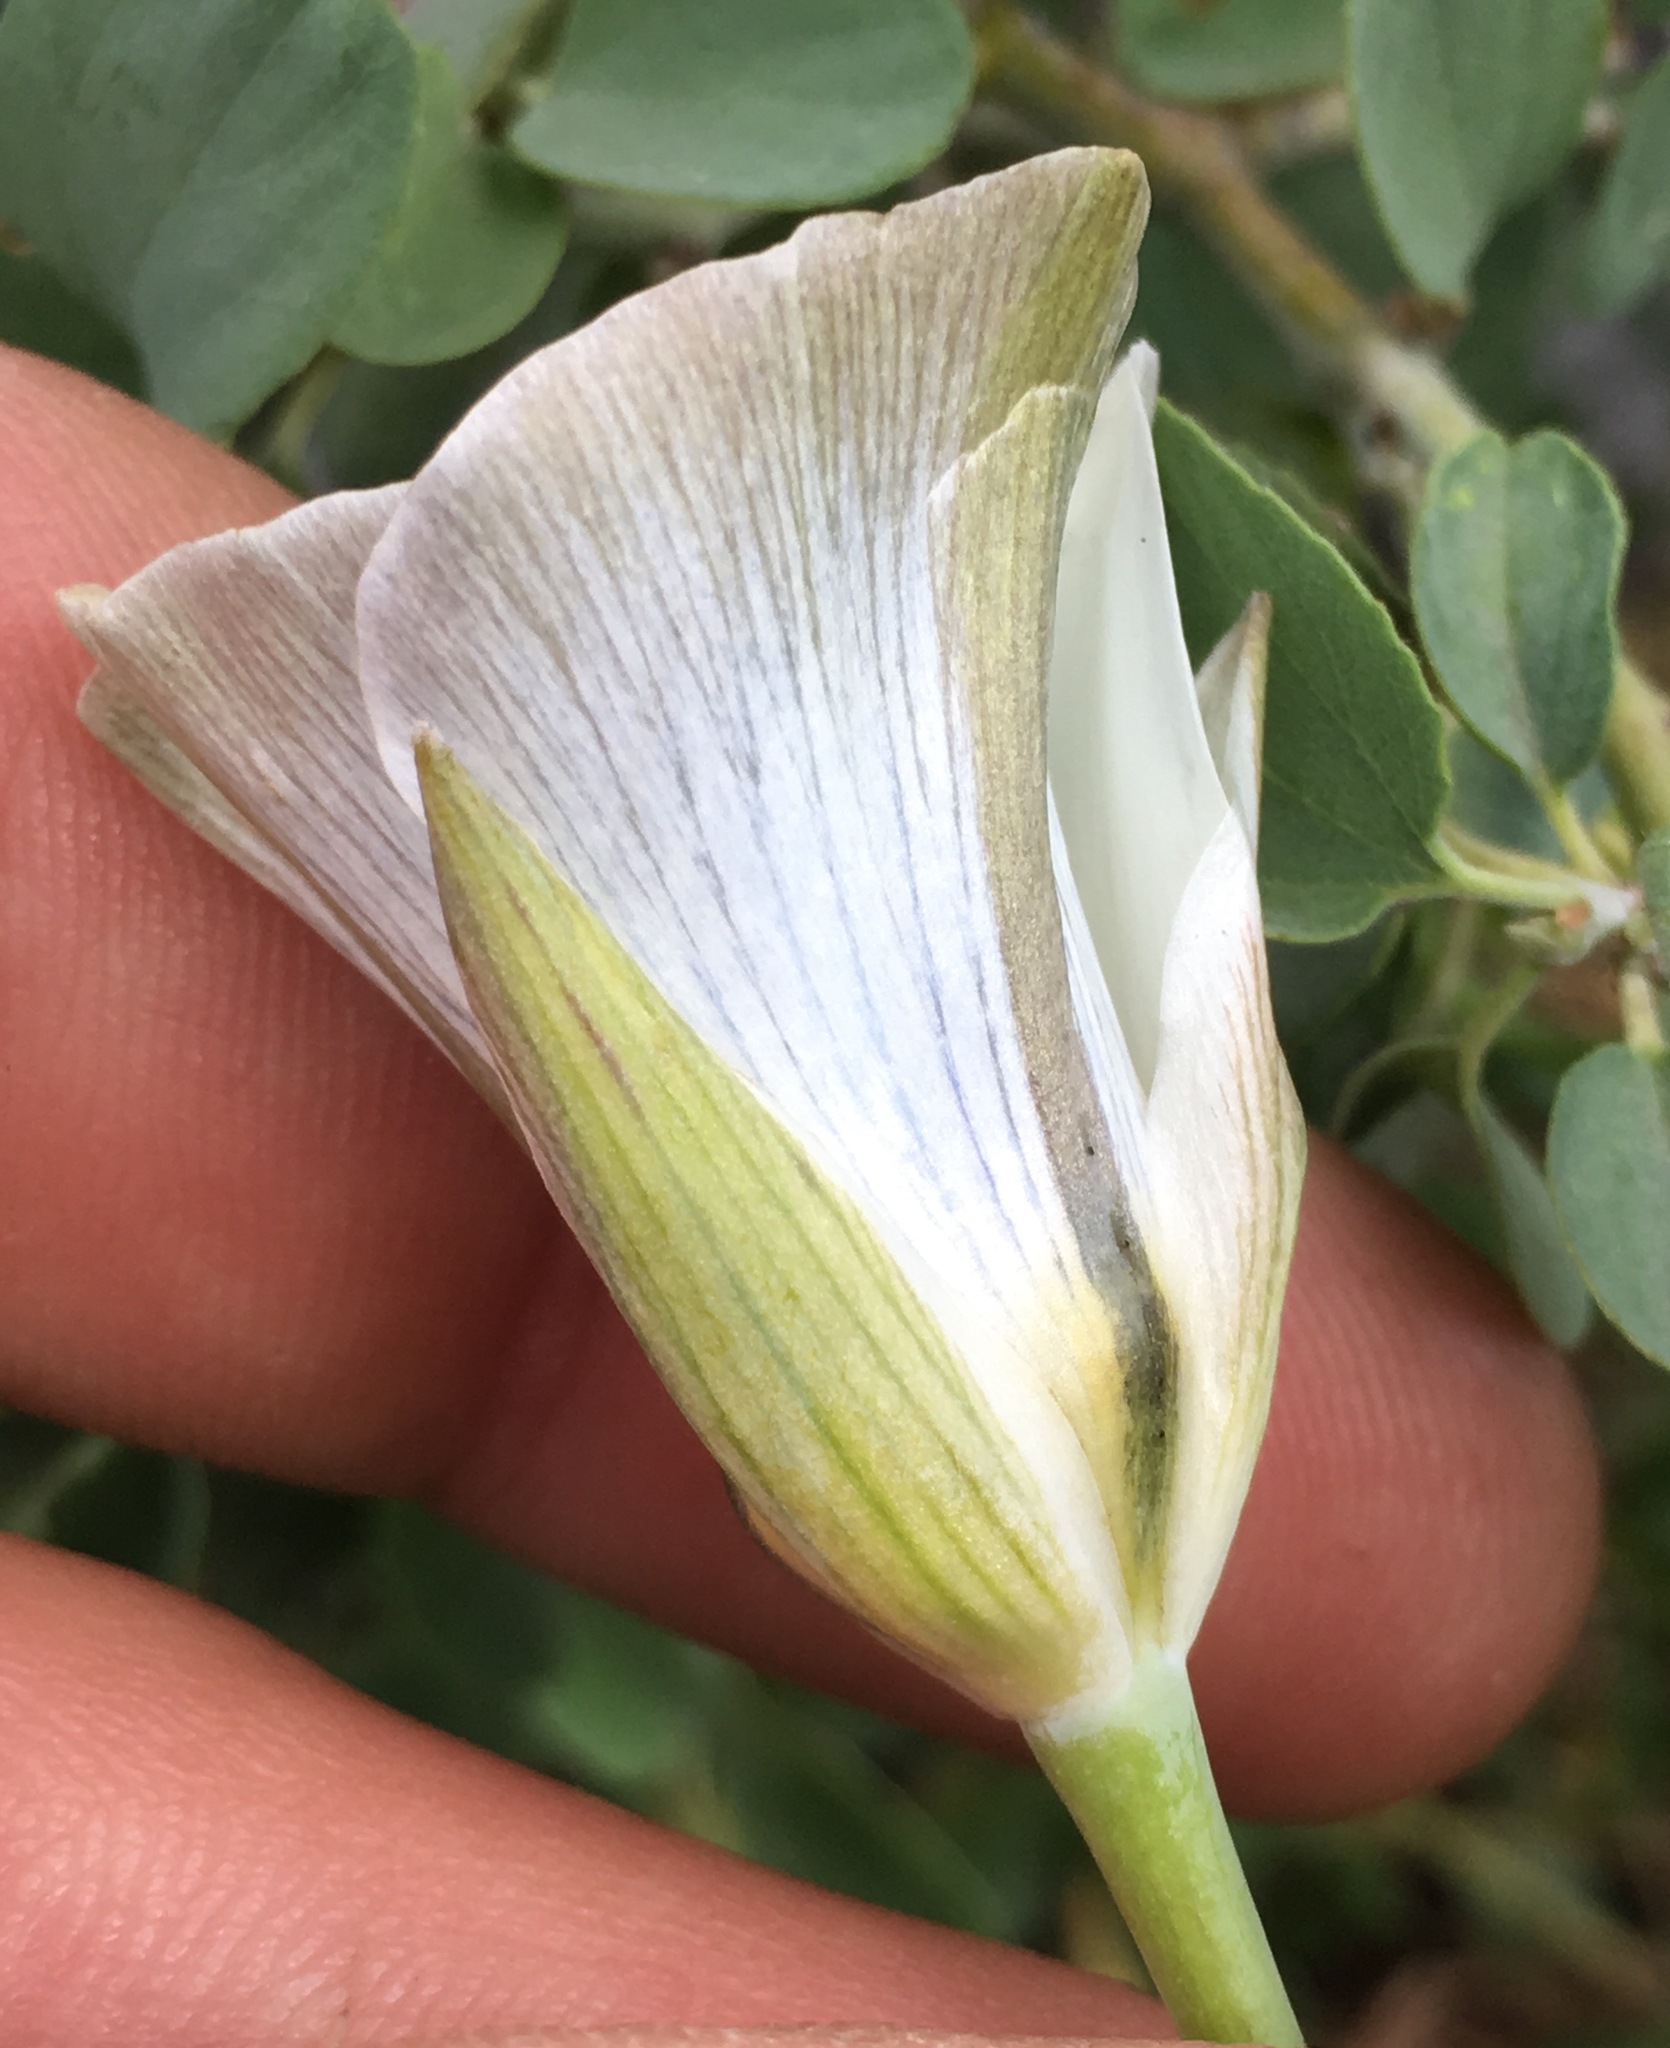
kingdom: Plantae
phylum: Tracheophyta
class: Liliopsida
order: Liliales
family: Liliaceae
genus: Calochortus
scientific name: Calochortus bruneaunis
